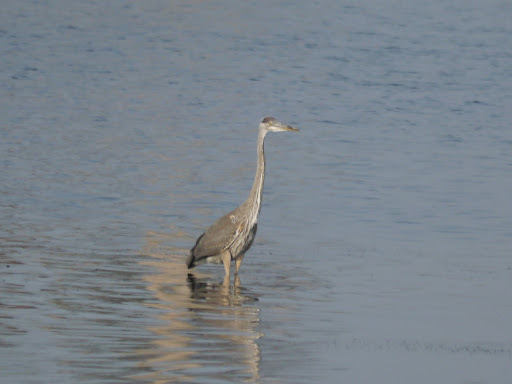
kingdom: Animalia
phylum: Chordata
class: Aves
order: Pelecaniformes
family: Ardeidae
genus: Ardea
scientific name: Ardea herodias
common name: Great blue heron
